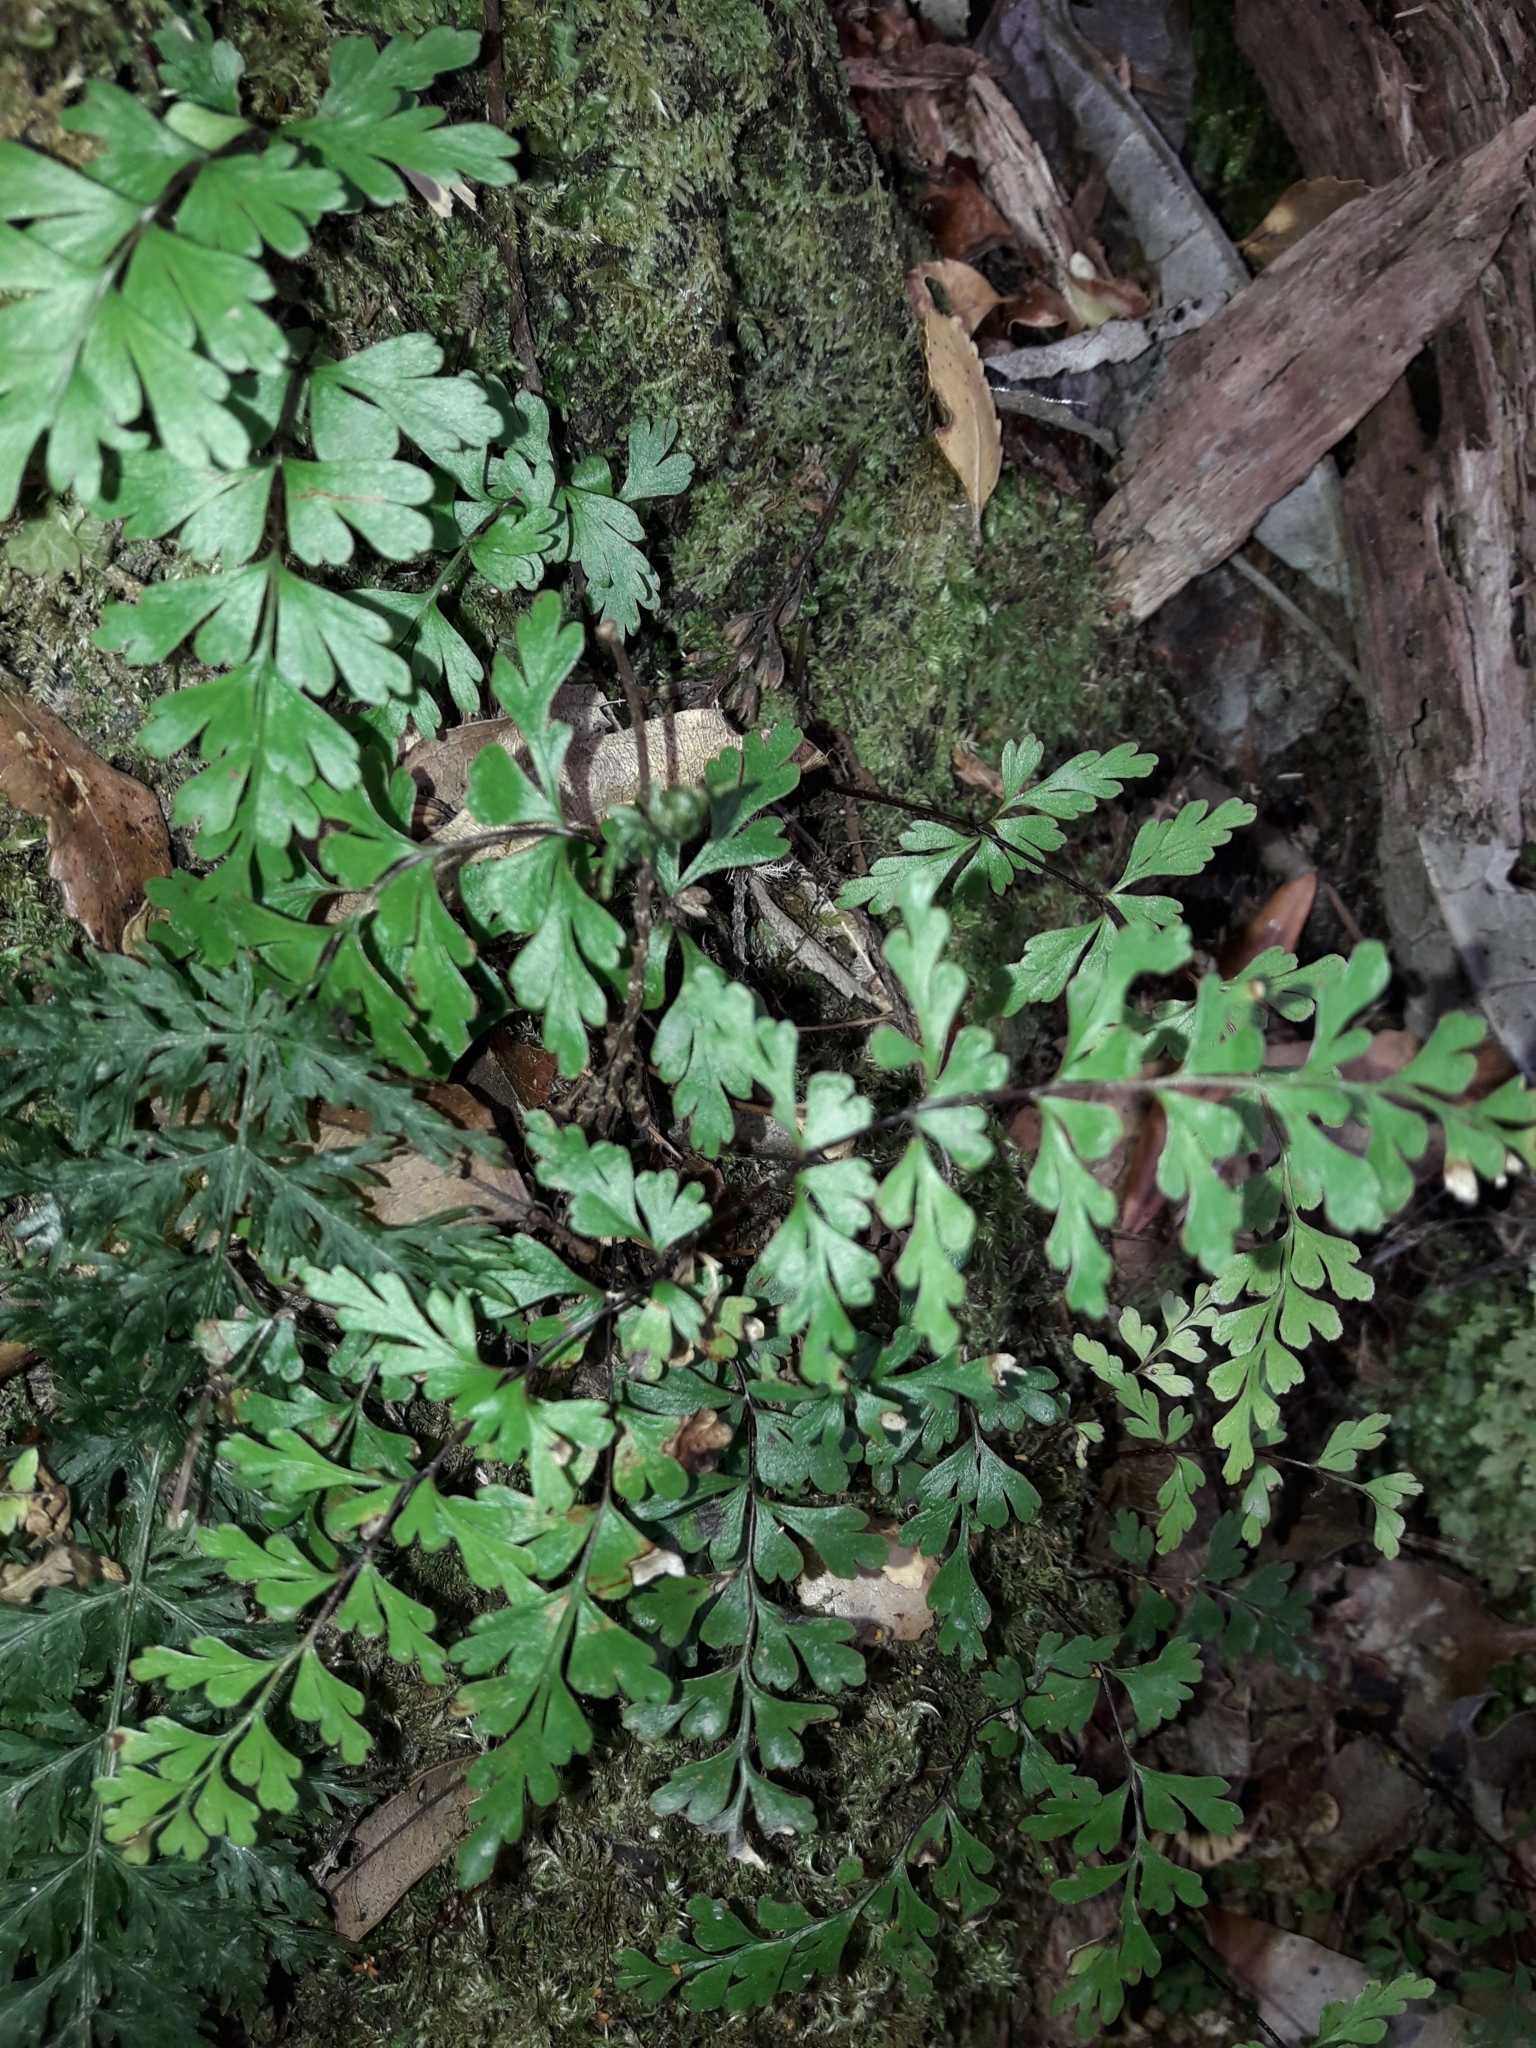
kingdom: Plantae
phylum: Tracheophyta
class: Polypodiopsida
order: Polypodiales
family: Lindsaeaceae
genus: Lindsaea
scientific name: Lindsaea trichomanoides
